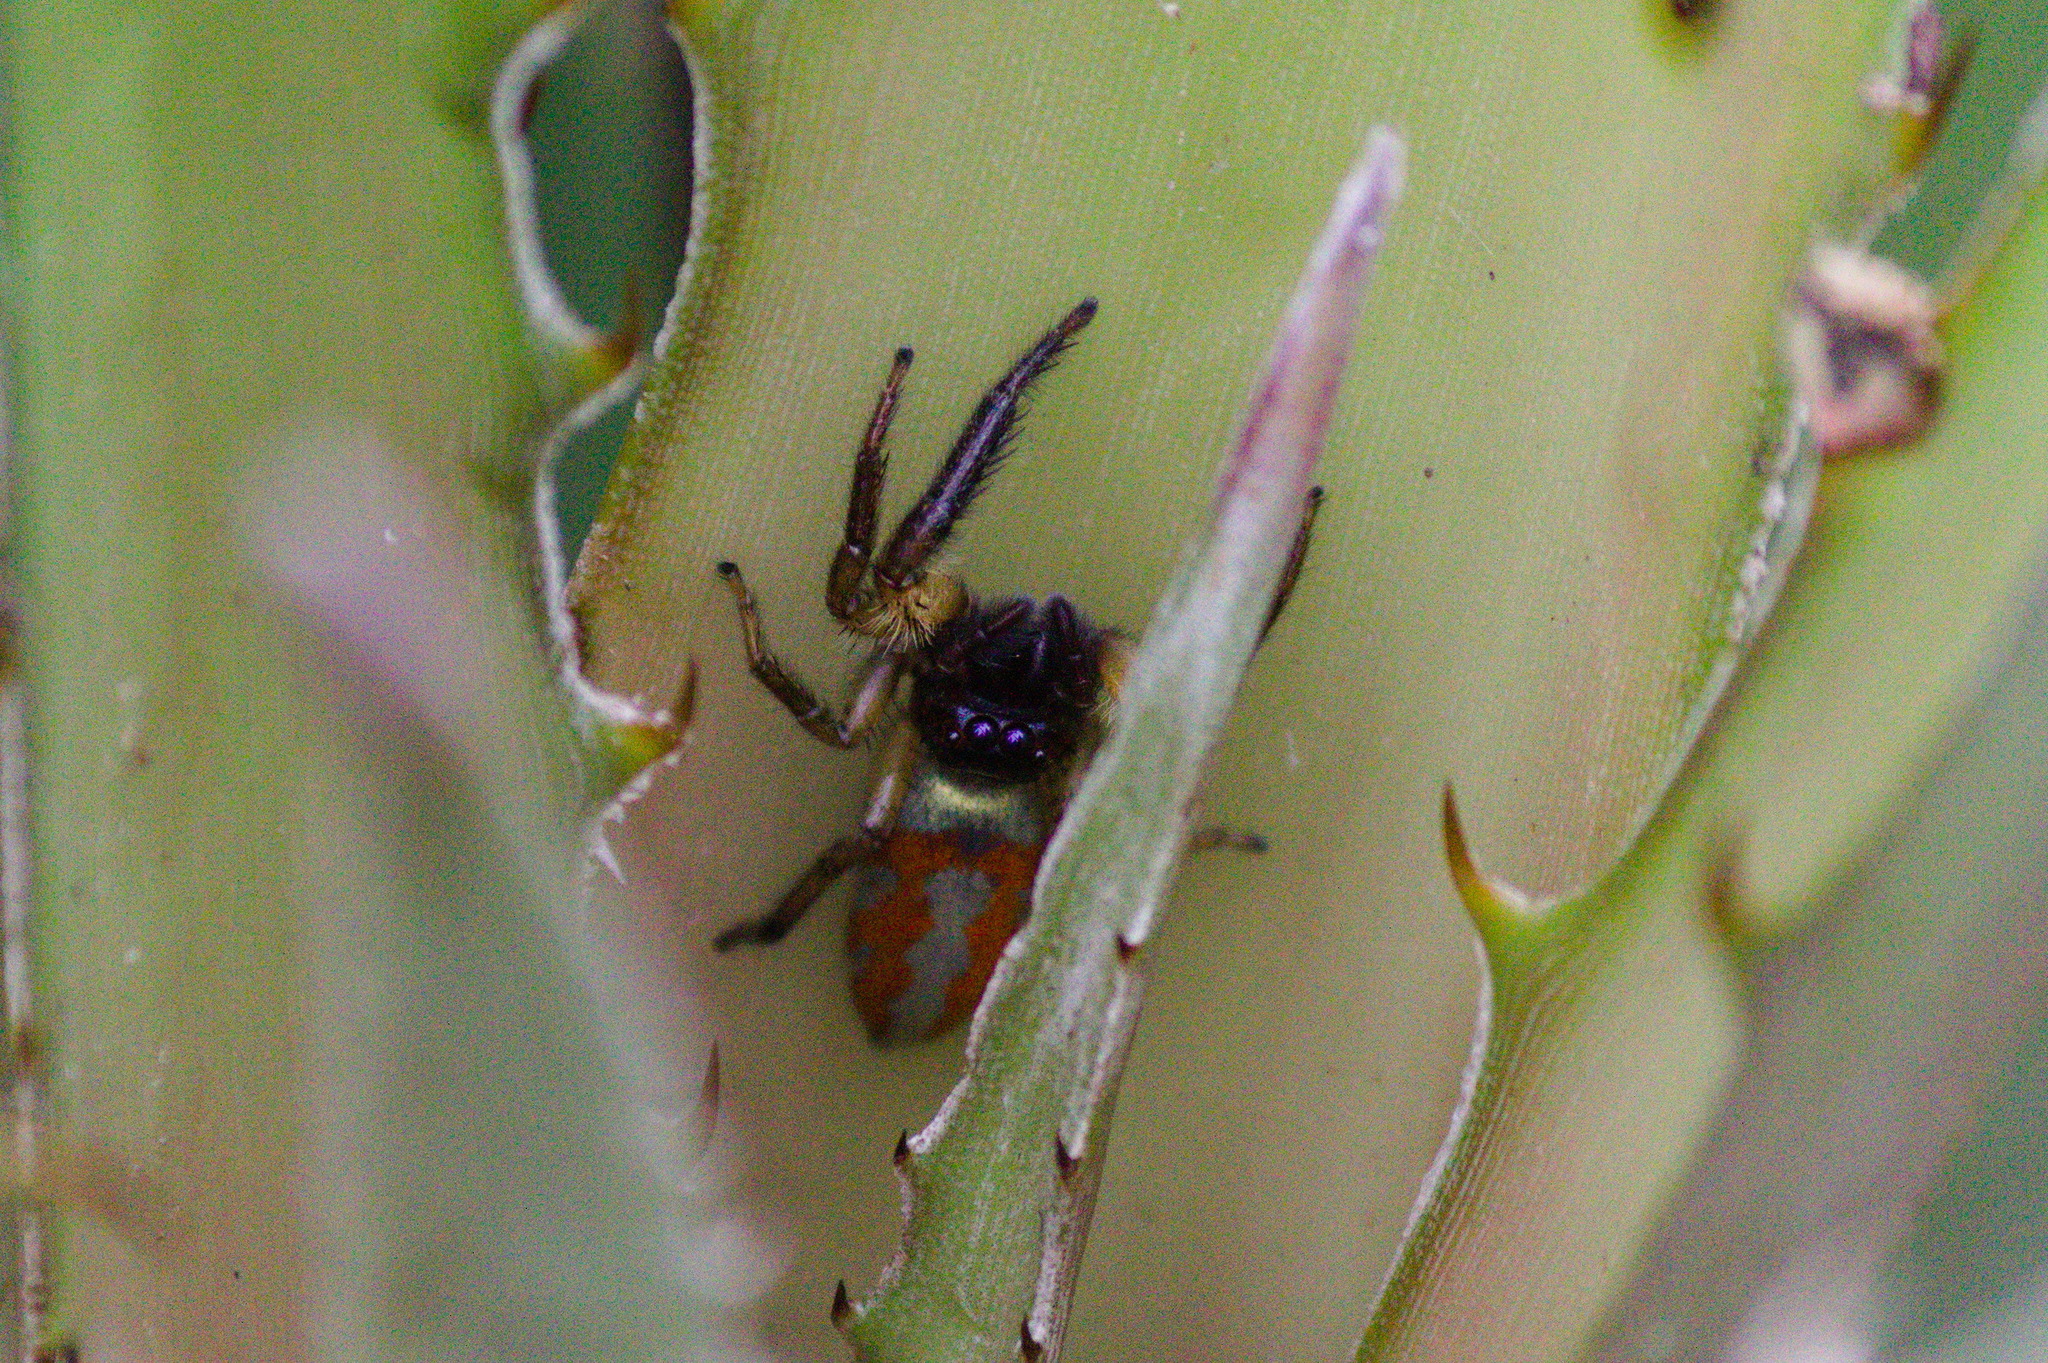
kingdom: Animalia
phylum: Arthropoda
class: Arachnida
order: Araneae
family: Salticidae
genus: Psecas
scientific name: Psecas chapoda
